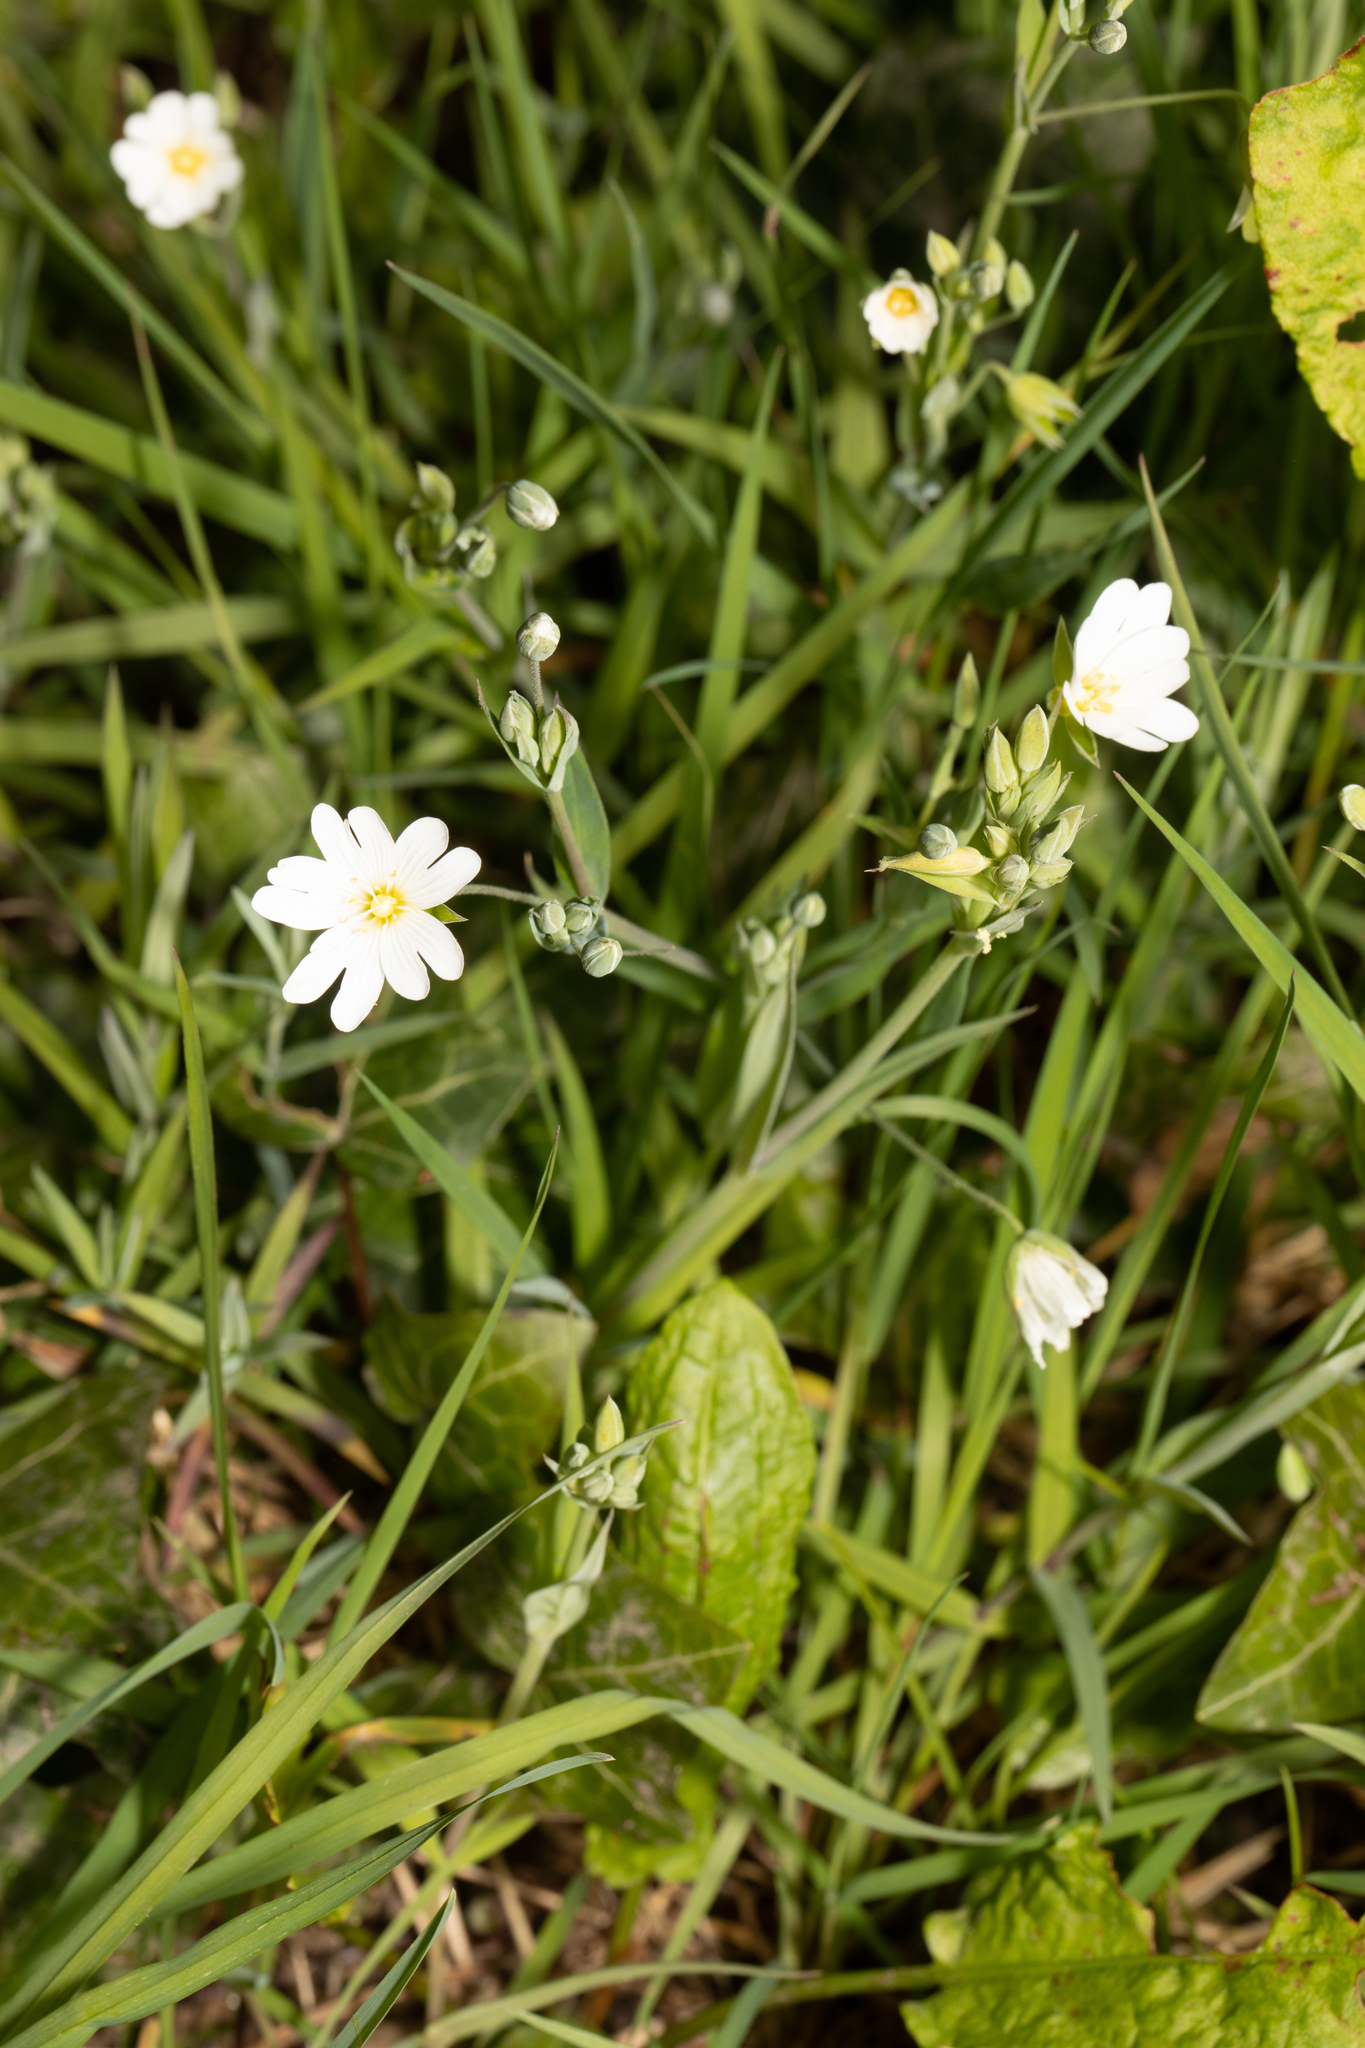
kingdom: Plantae
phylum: Tracheophyta
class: Magnoliopsida
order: Caryophyllales
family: Caryophyllaceae
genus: Rabelera
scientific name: Rabelera holostea
